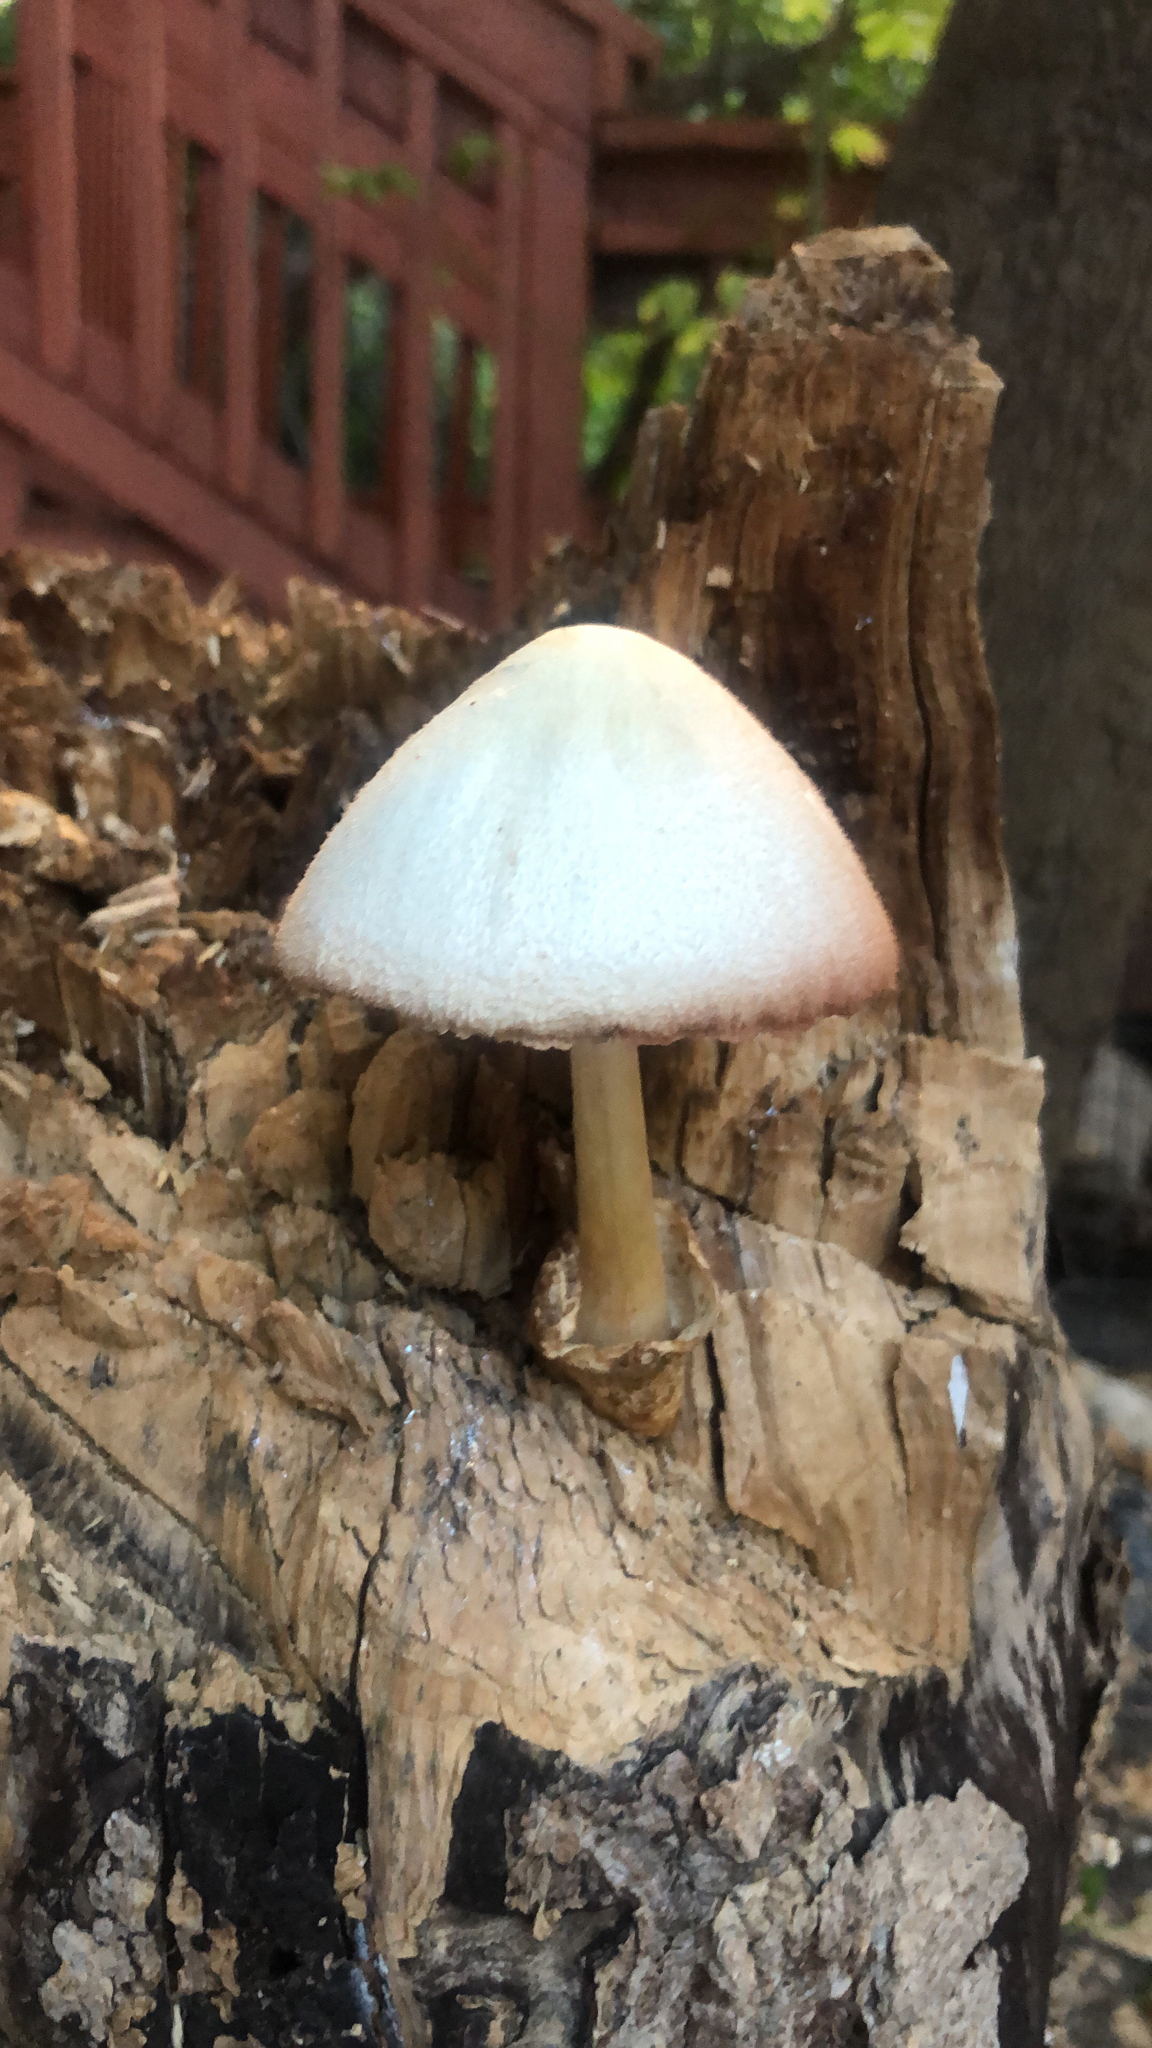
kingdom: Fungi
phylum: Basidiomycota
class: Agaricomycetes
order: Agaricales
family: Pluteaceae
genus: Volvariella
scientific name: Volvariella bombycina
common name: Silky rosegill
